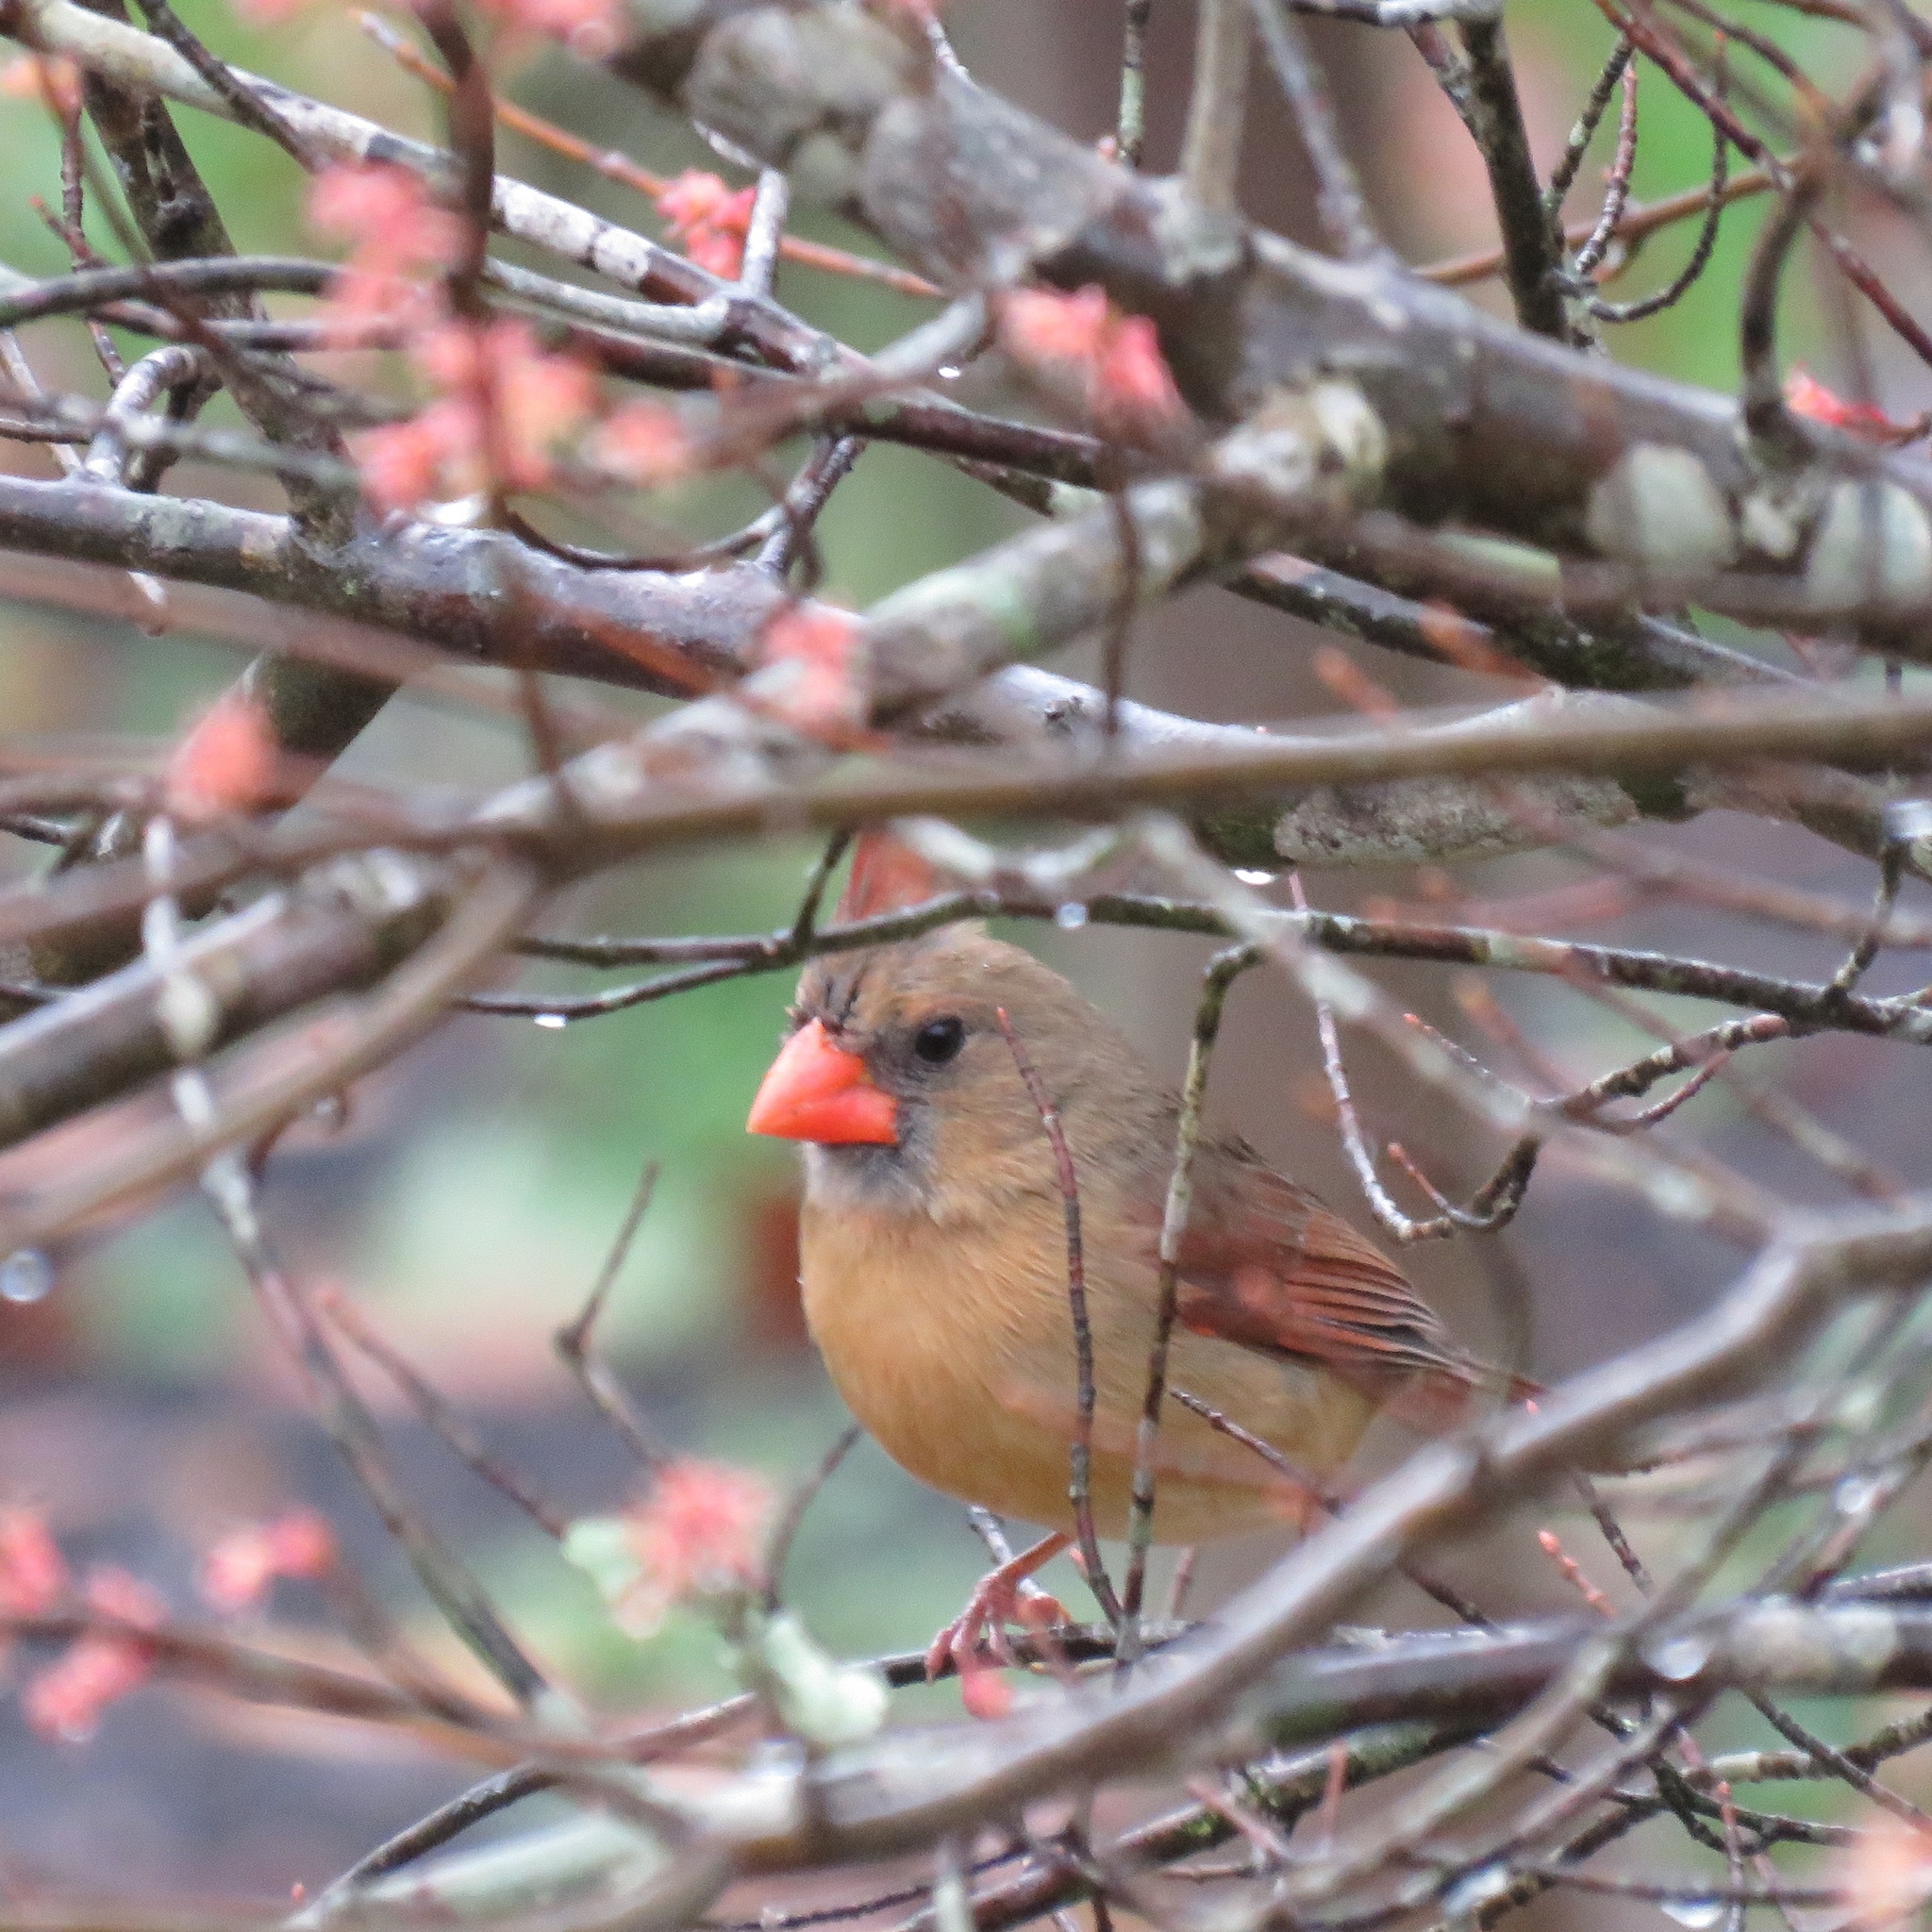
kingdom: Animalia
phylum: Chordata
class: Aves
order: Passeriformes
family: Cardinalidae
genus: Cardinalis
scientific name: Cardinalis cardinalis
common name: Northern cardinal
